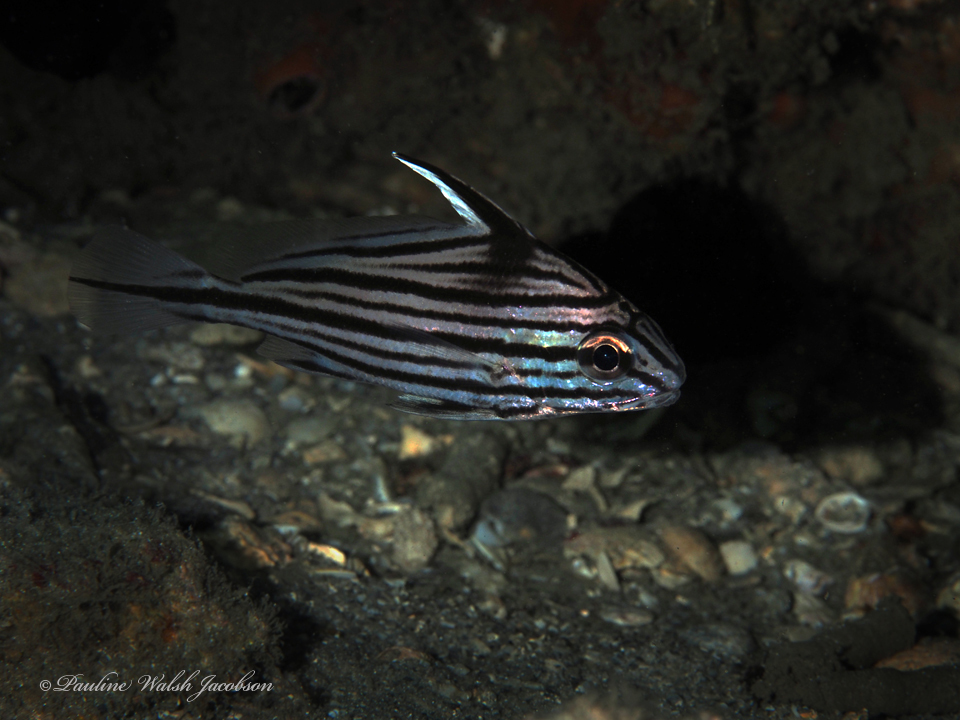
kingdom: Animalia
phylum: Chordata
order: Perciformes
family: Sciaenidae
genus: Pareques
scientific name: Pareques acuminatus
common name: High-hat
